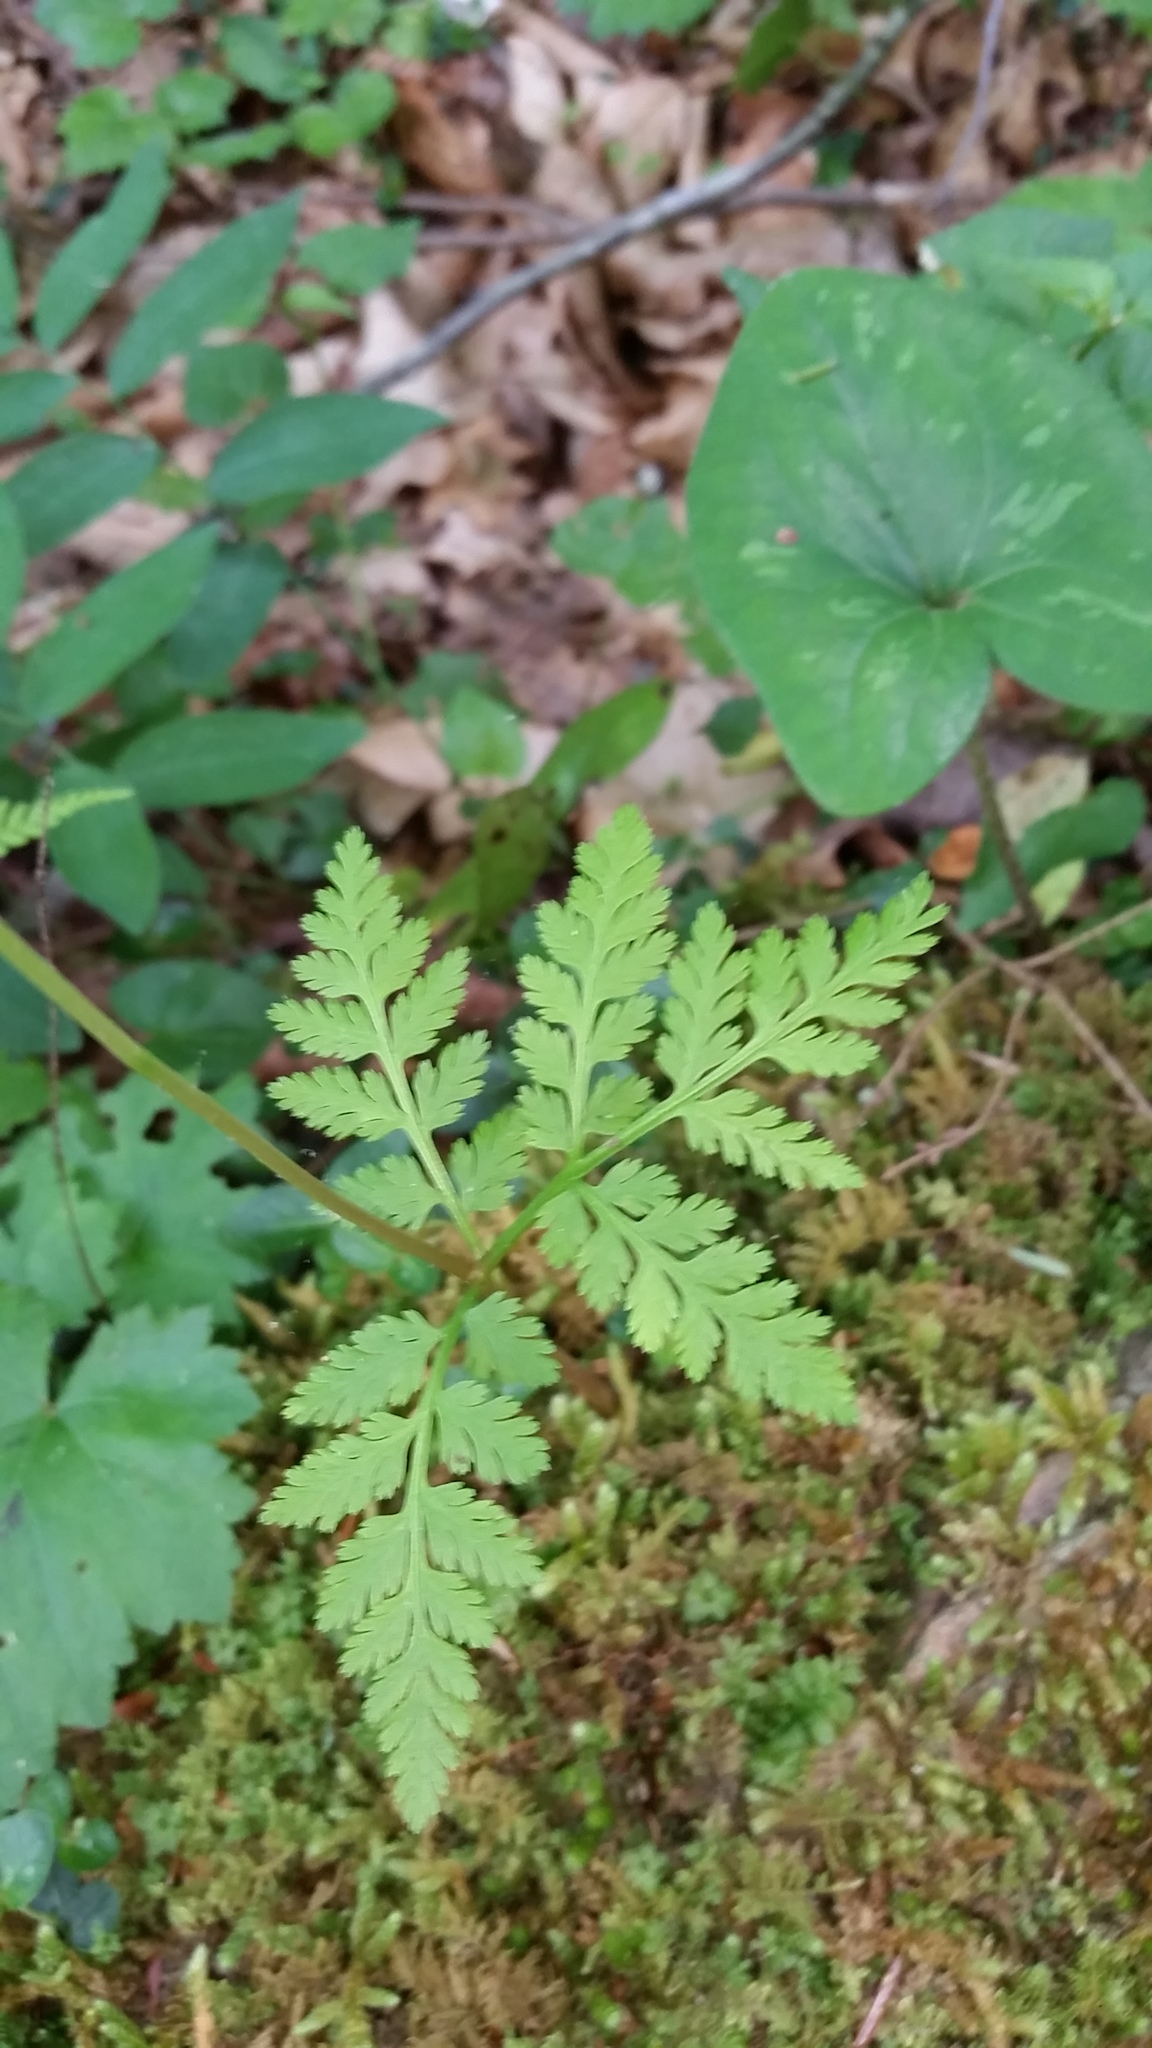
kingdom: Plantae
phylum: Tracheophyta
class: Polypodiopsida
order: Ophioglossales
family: Ophioglossaceae
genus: Botrypus
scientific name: Botrypus virginianus
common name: Common grapefern
